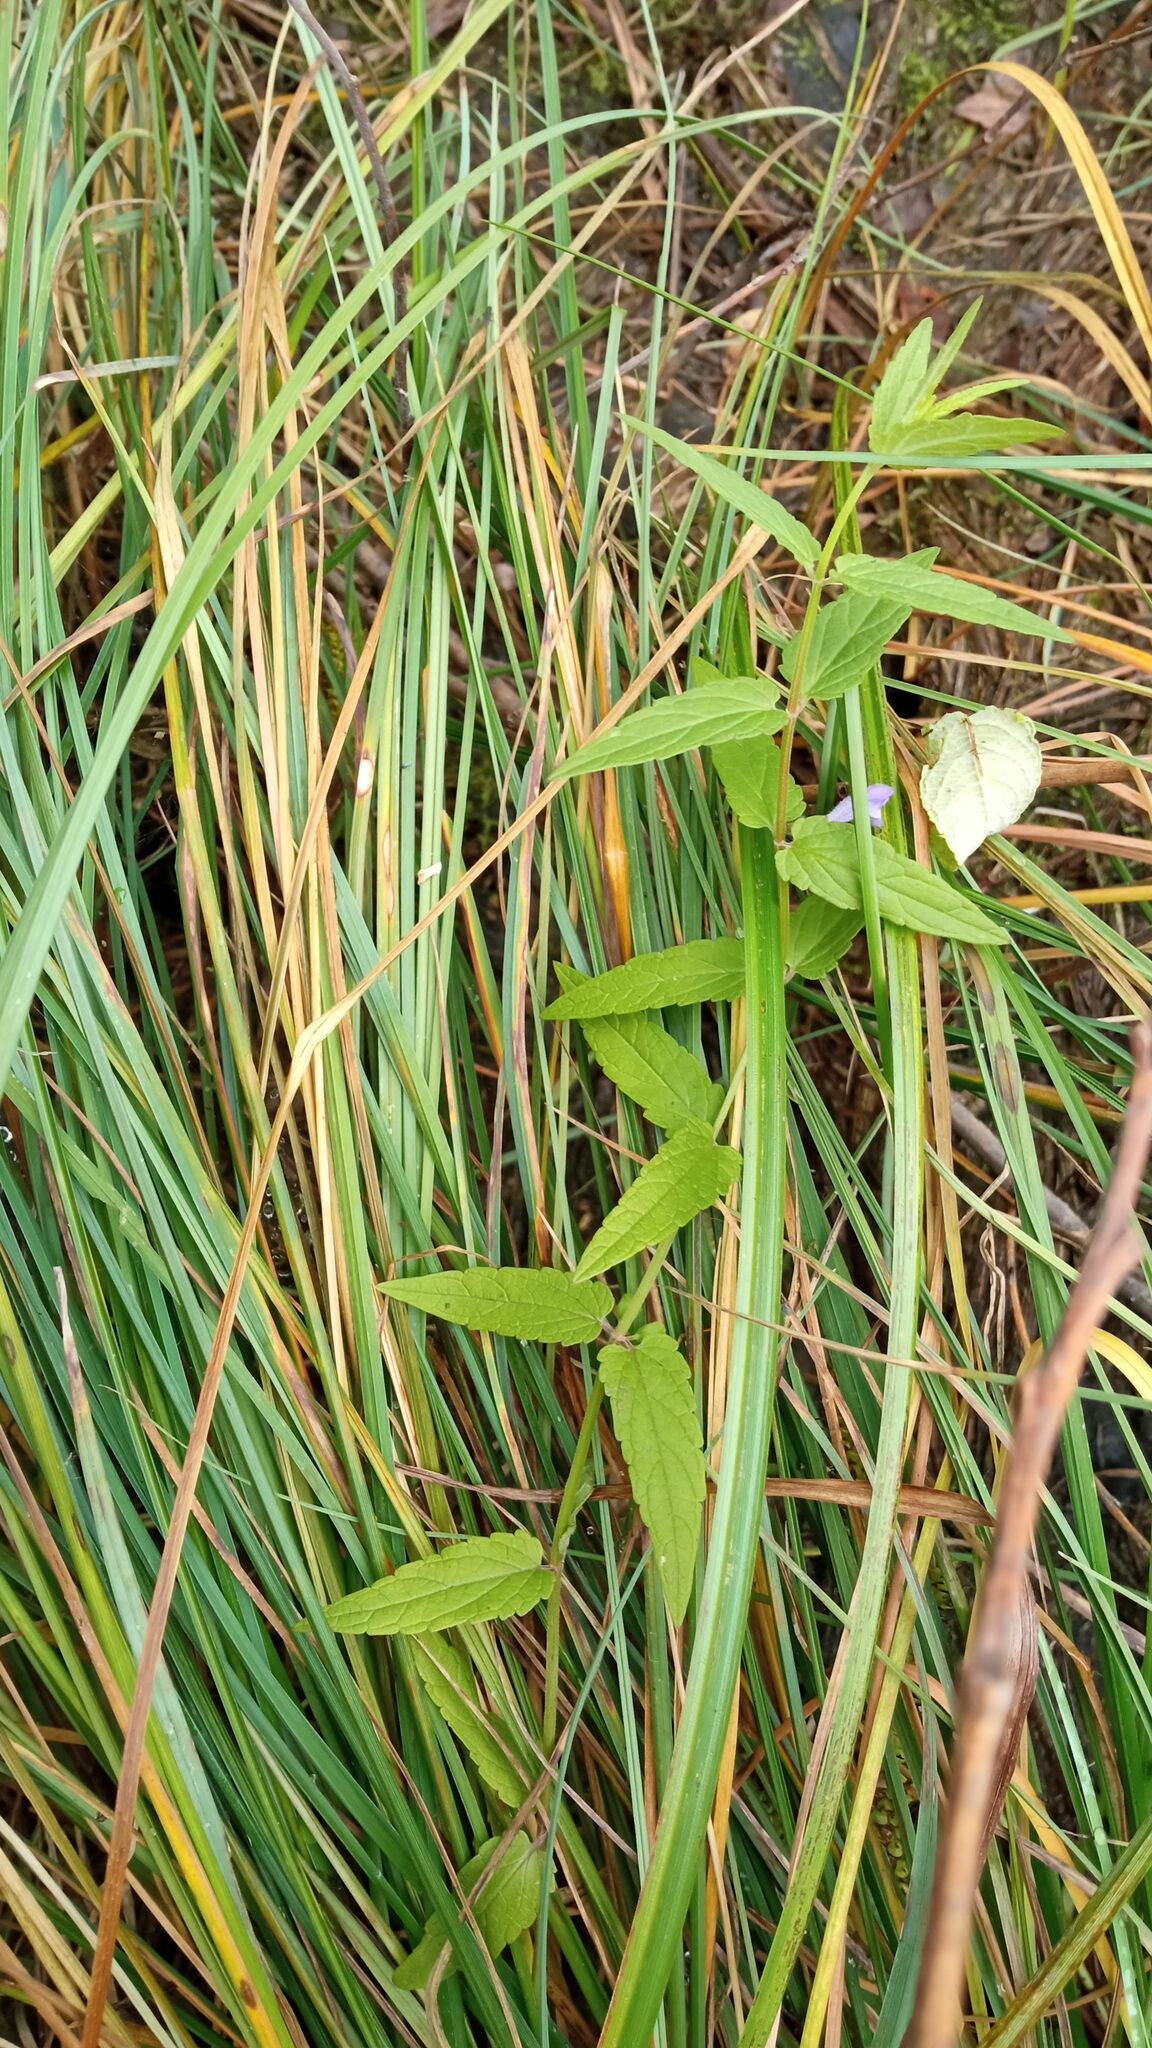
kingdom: Plantae
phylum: Tracheophyta
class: Magnoliopsida
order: Lamiales
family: Lamiaceae
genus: Scutellaria
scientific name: Scutellaria galericulata
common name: Skullcap
